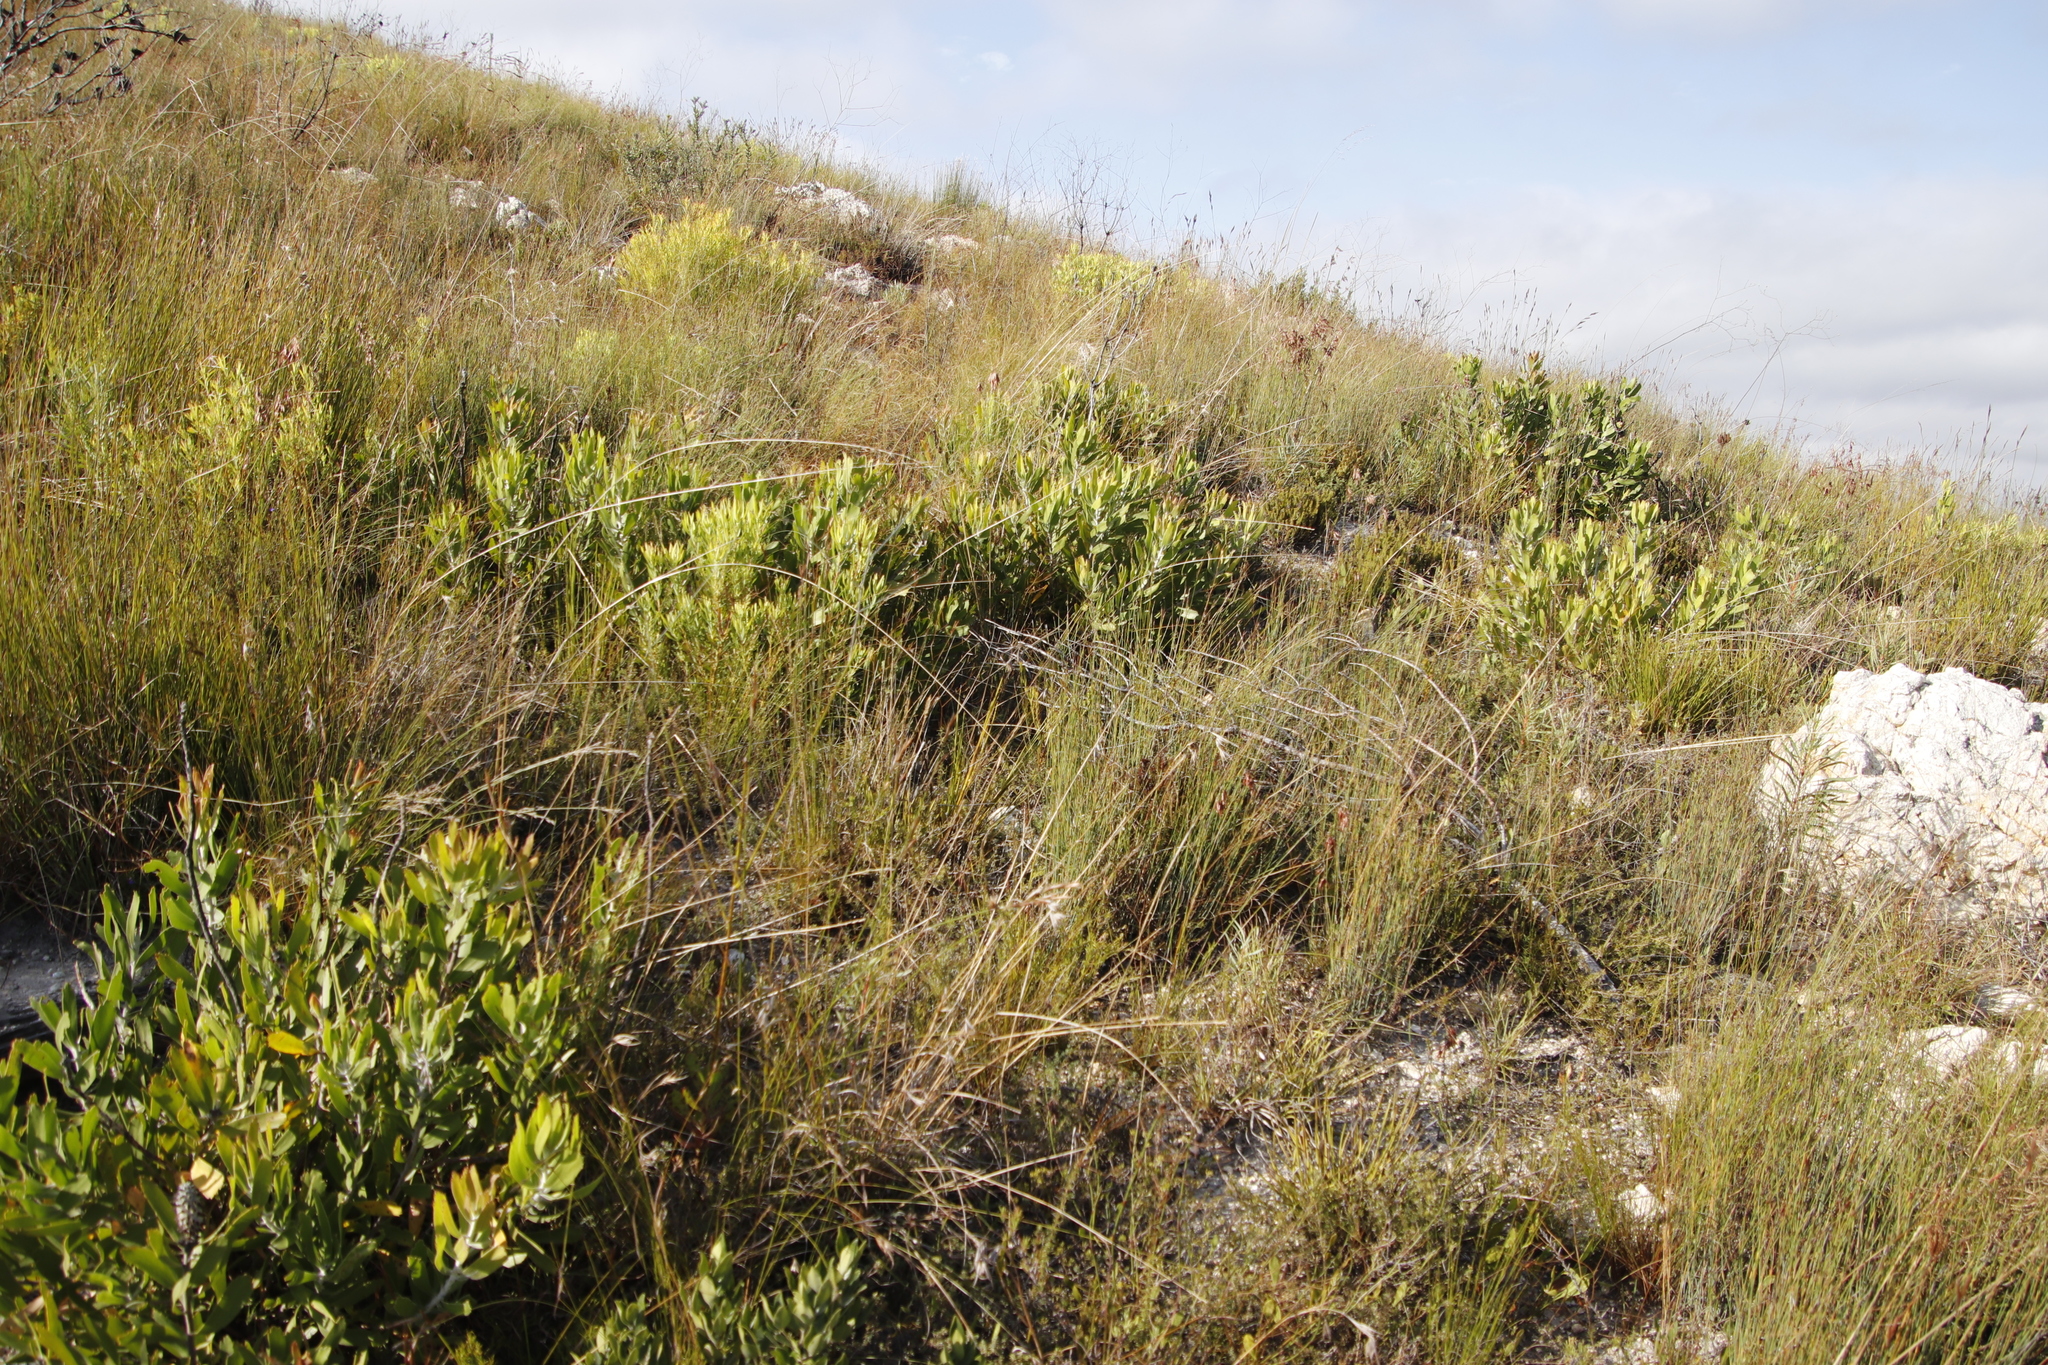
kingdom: Plantae
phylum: Tracheophyta
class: Magnoliopsida
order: Proteales
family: Proteaceae
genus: Leucadendron
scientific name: Leucadendron salignum
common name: Common sunshine conebush
